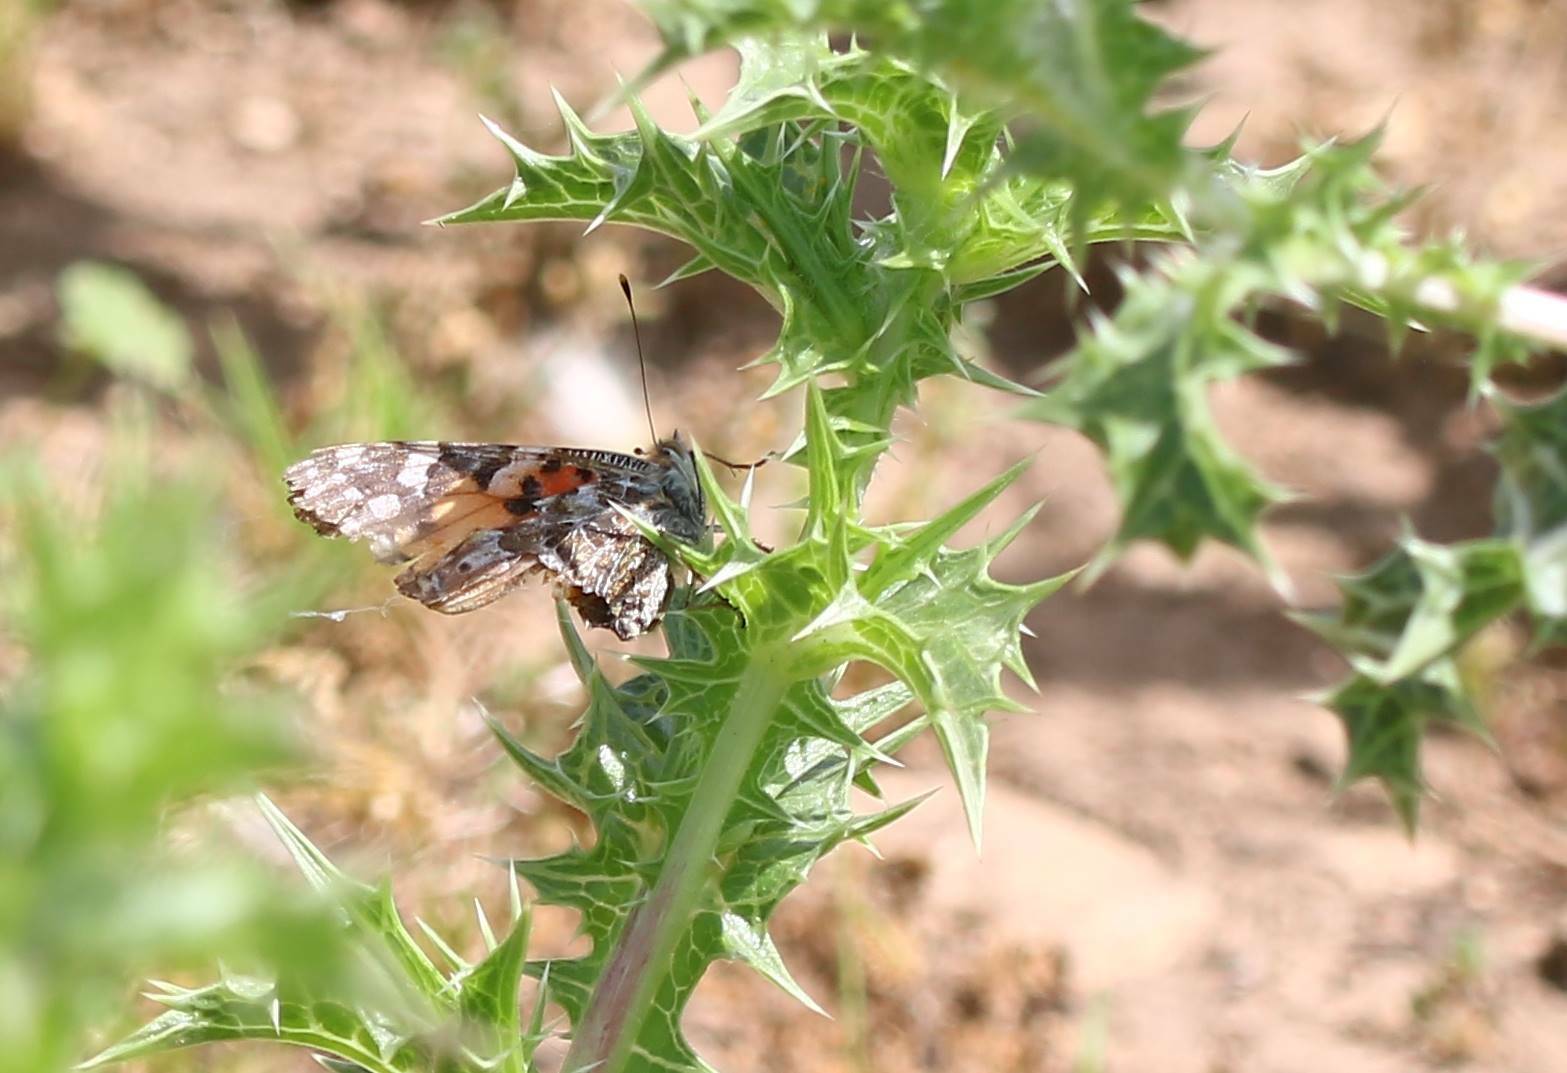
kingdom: Animalia
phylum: Arthropoda
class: Insecta
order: Lepidoptera
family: Nymphalidae
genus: Vanessa
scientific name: Vanessa cardui
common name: Painted lady
